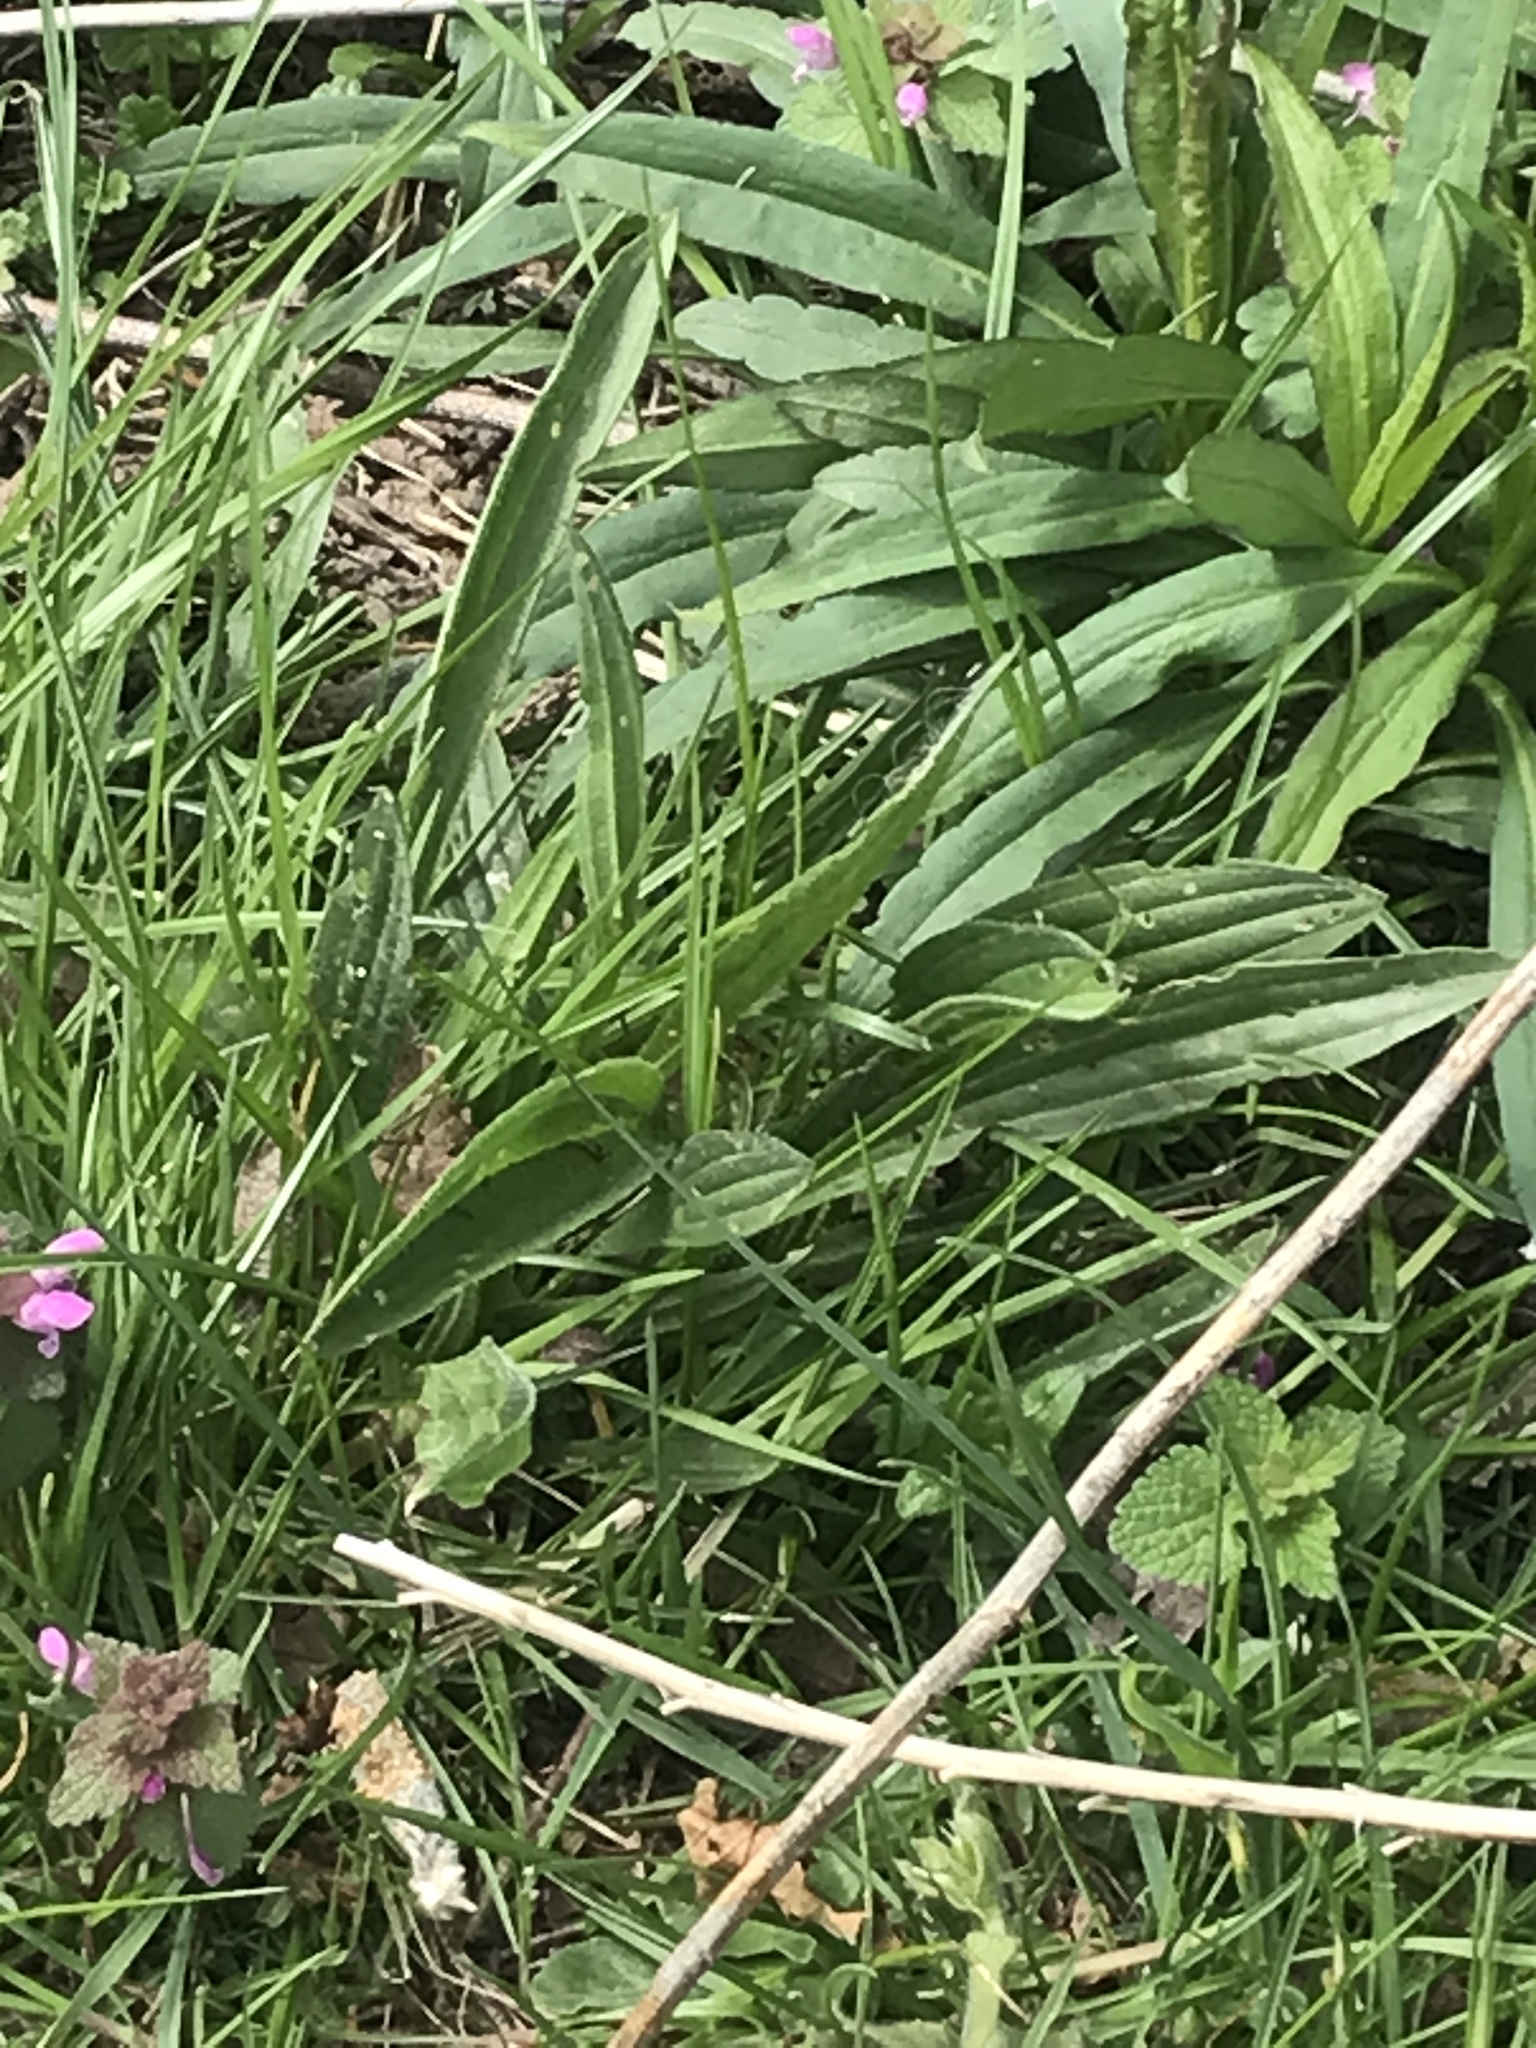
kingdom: Plantae
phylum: Tracheophyta
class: Magnoliopsida
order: Lamiales
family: Plantaginaceae
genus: Plantago
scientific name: Plantago lanceolata
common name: Ribwort plantain
